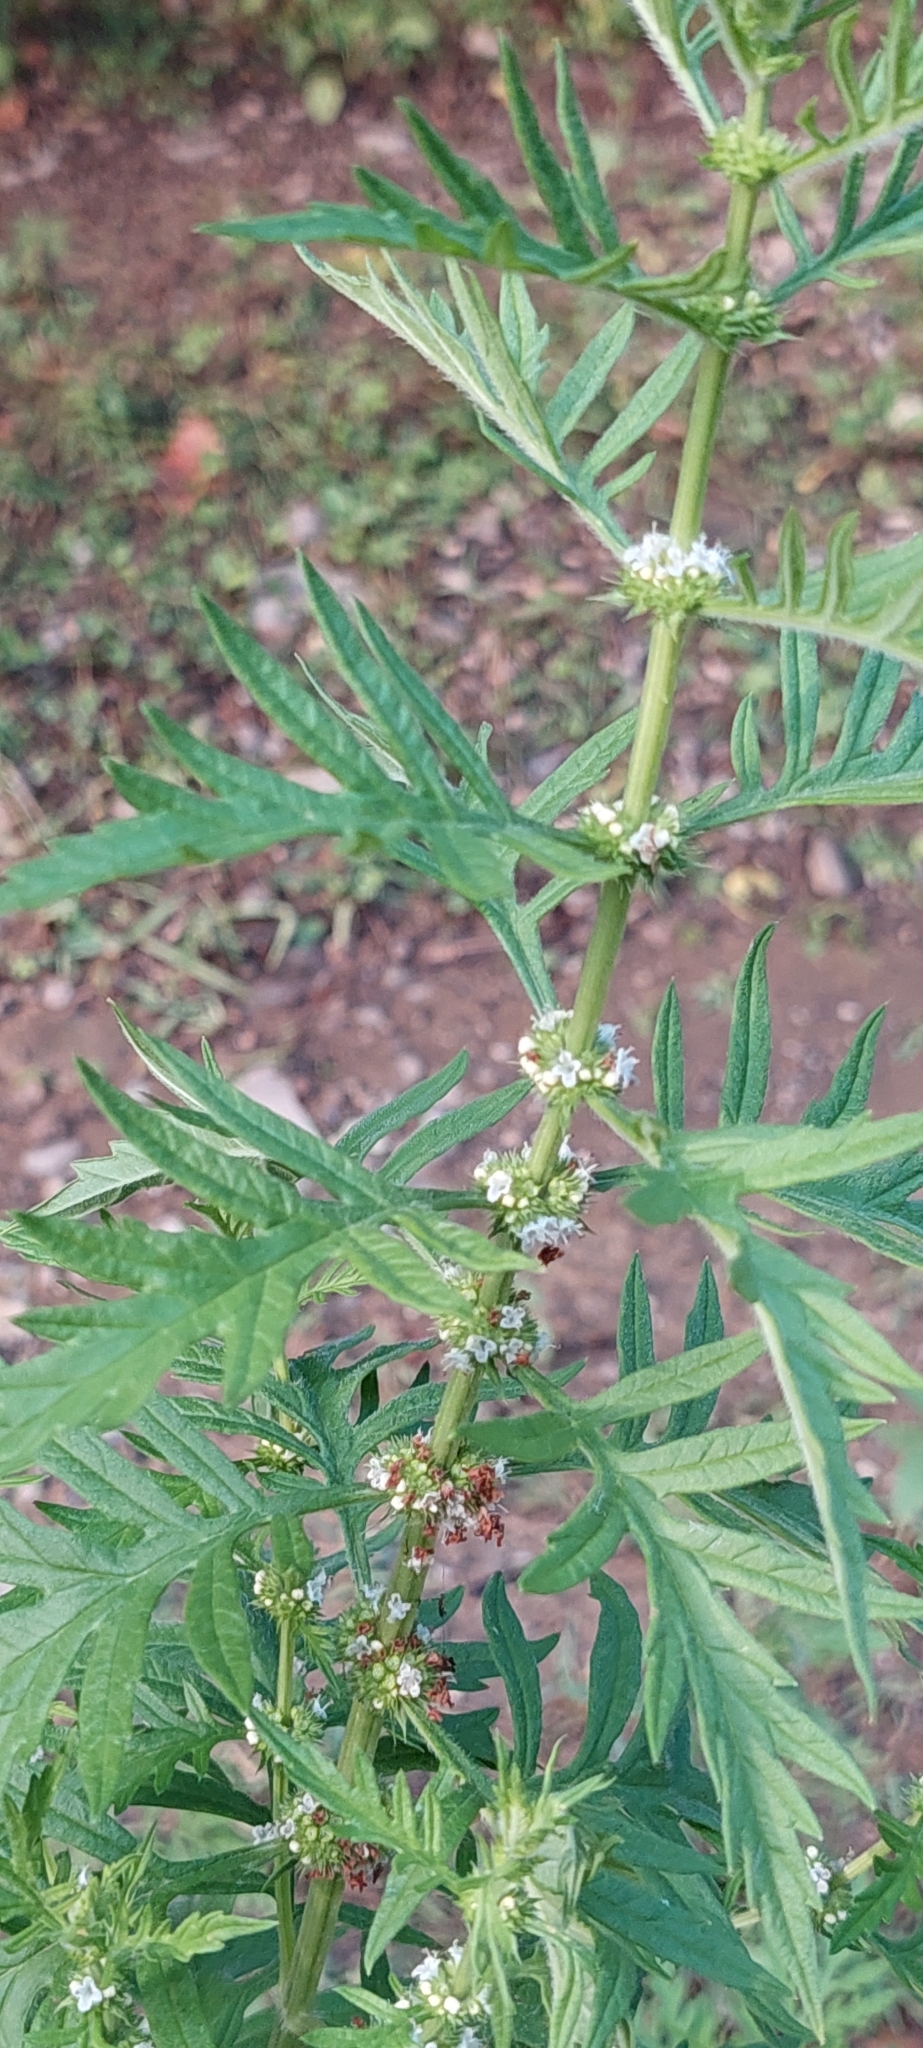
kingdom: Plantae
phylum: Tracheophyta
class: Magnoliopsida
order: Lamiales
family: Lamiaceae
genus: Lycopus
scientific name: Lycopus exaltatus
